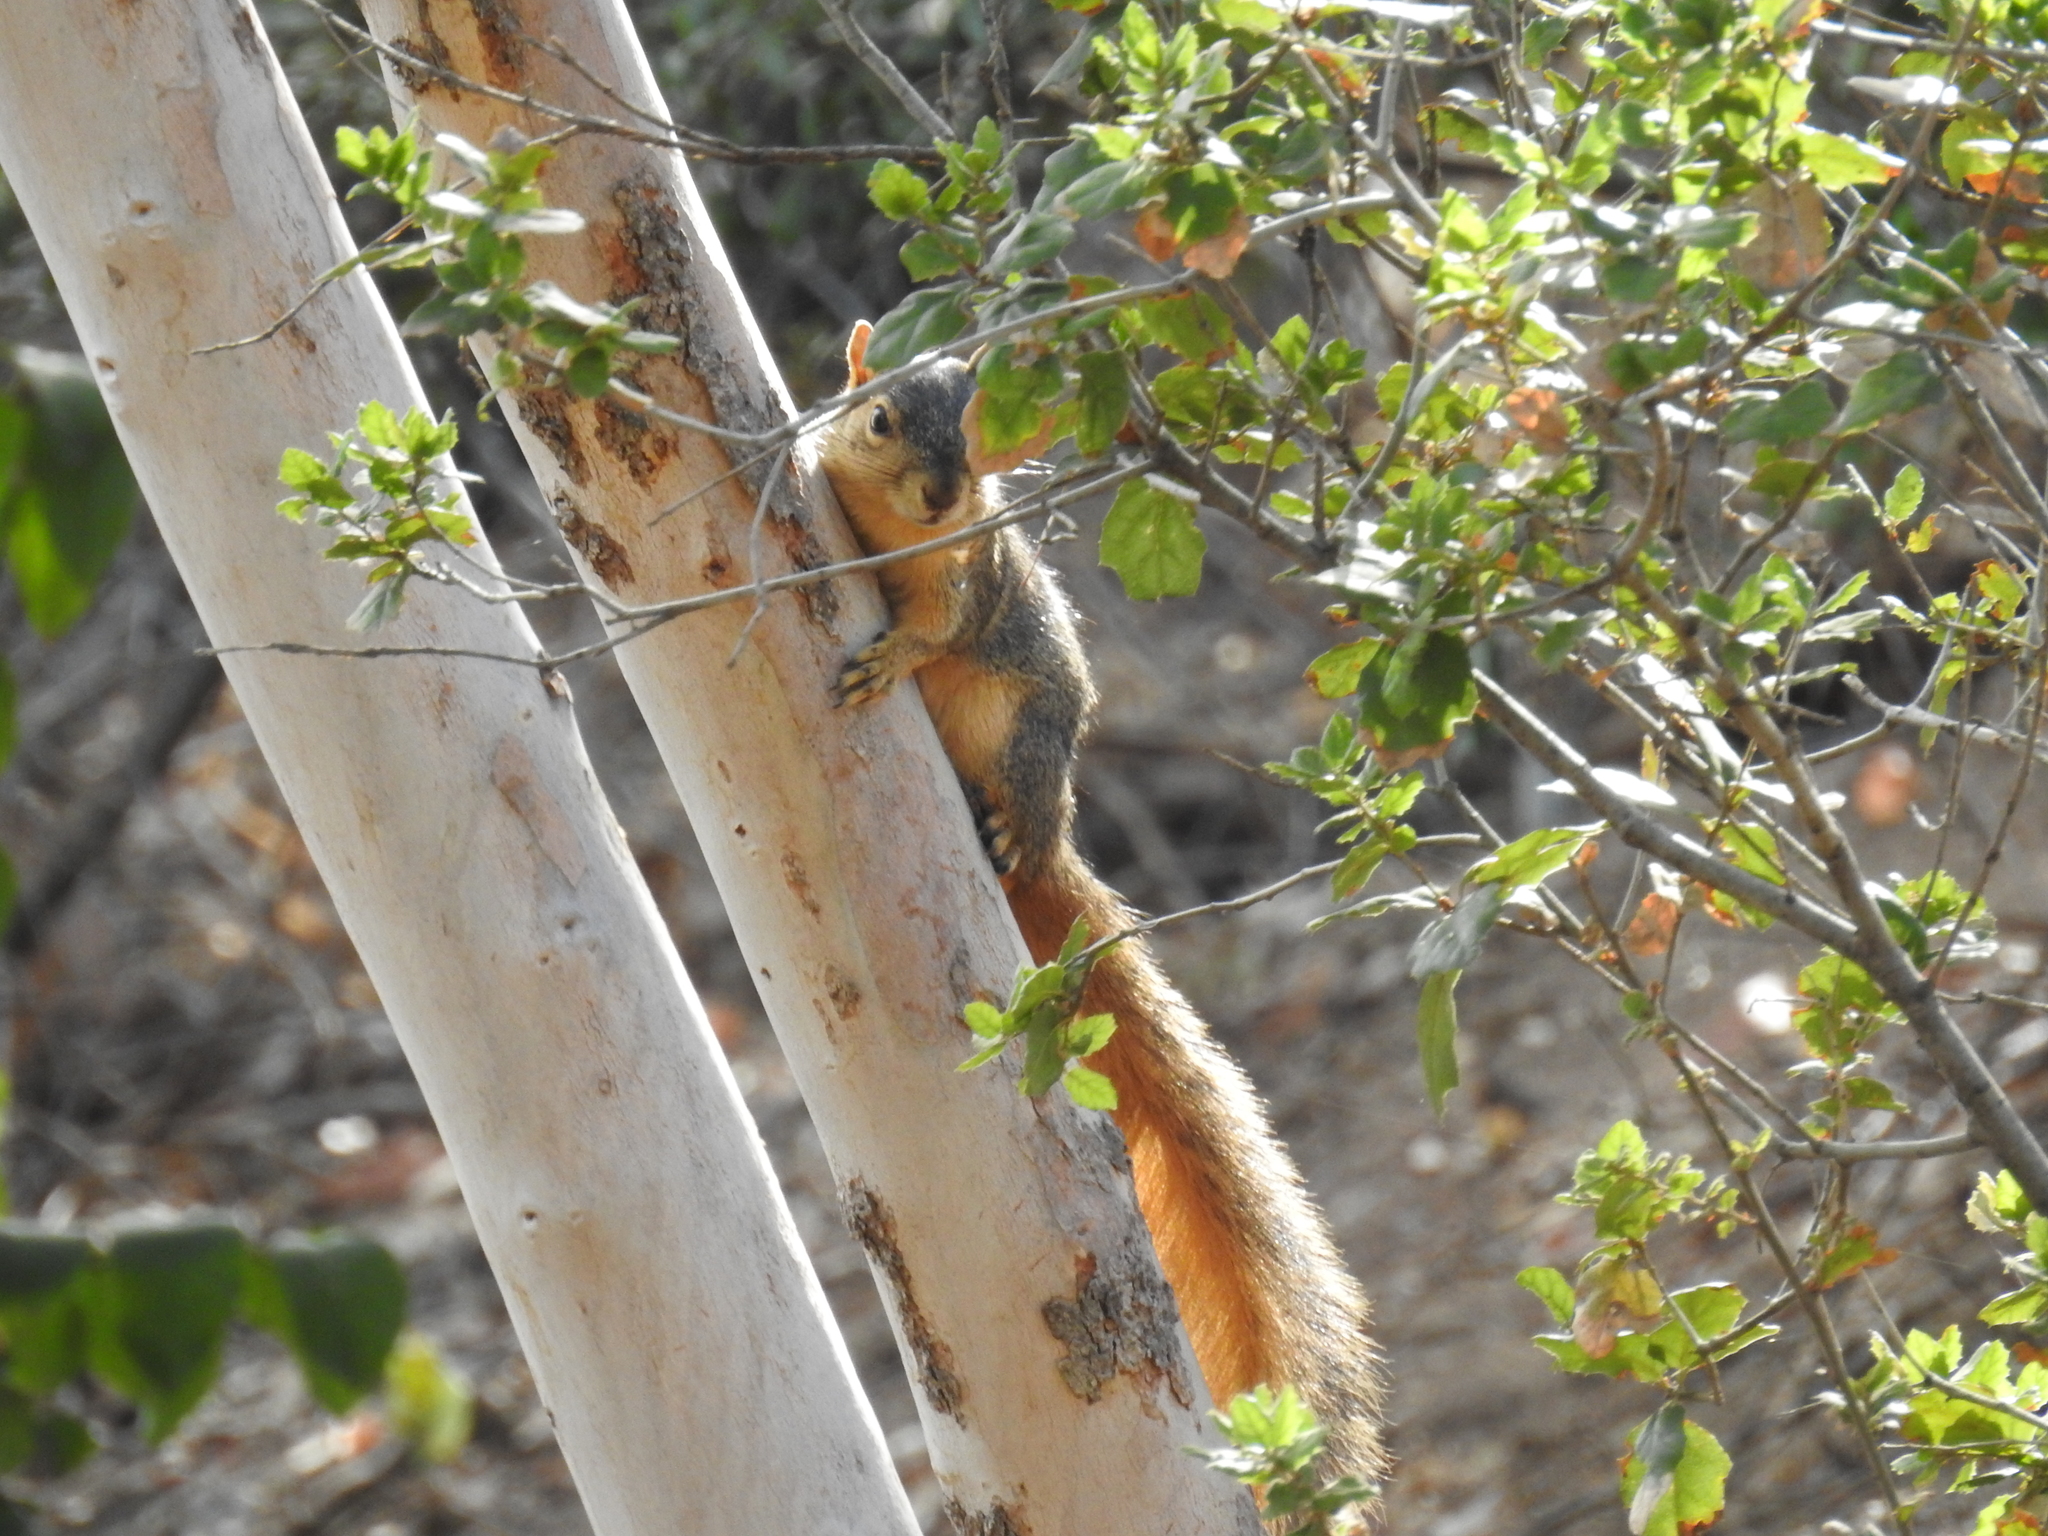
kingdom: Animalia
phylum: Chordata
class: Mammalia
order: Rodentia
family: Sciuridae
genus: Sciurus
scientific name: Sciurus niger
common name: Fox squirrel
